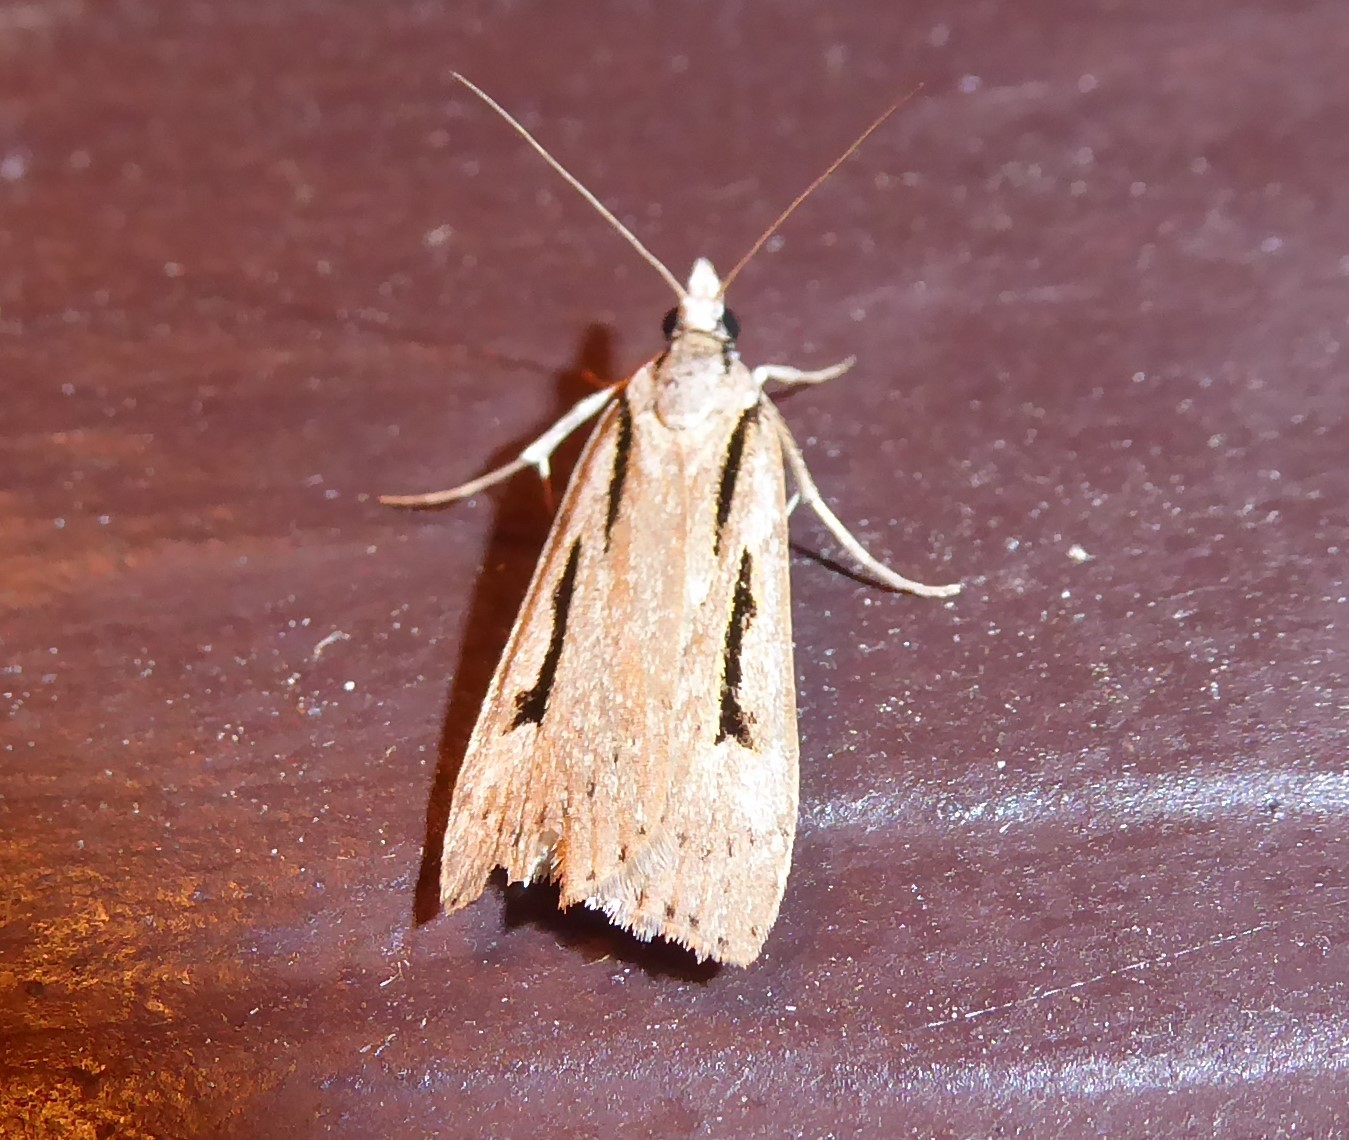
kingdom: Animalia
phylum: Arthropoda
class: Insecta
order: Lepidoptera
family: Crambidae
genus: Scoparia
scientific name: Scoparia rotuellus
